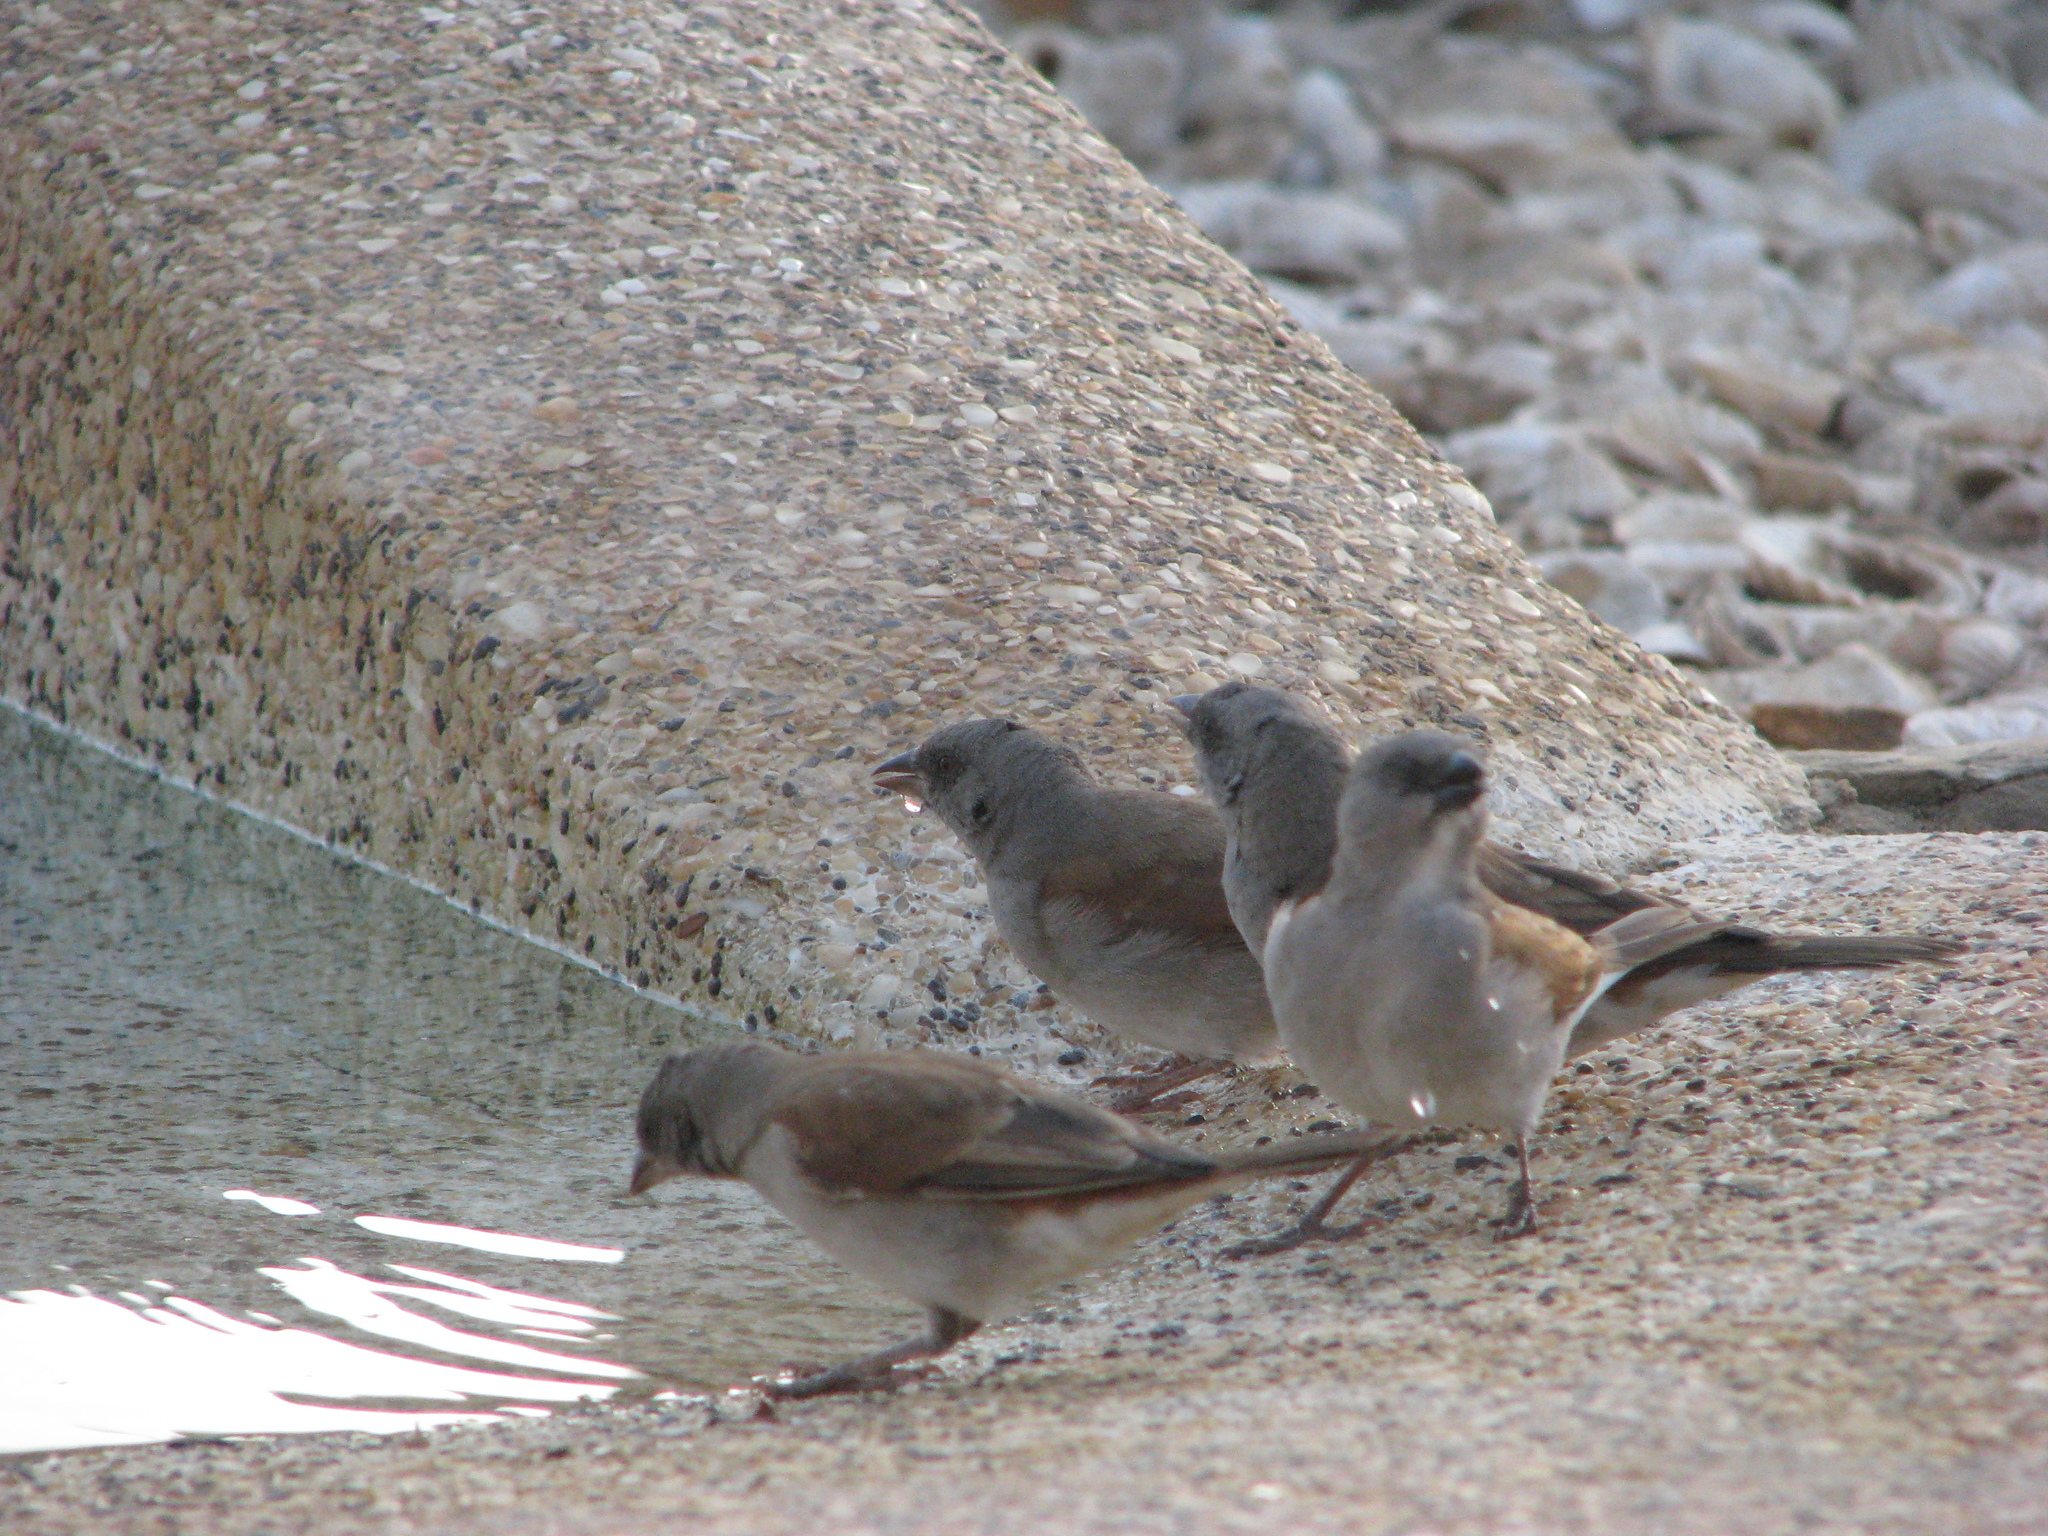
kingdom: Animalia
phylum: Chordata
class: Aves
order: Passeriformes
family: Passeridae
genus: Passer
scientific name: Passer griseus
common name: Northern grey-headed sparrow
